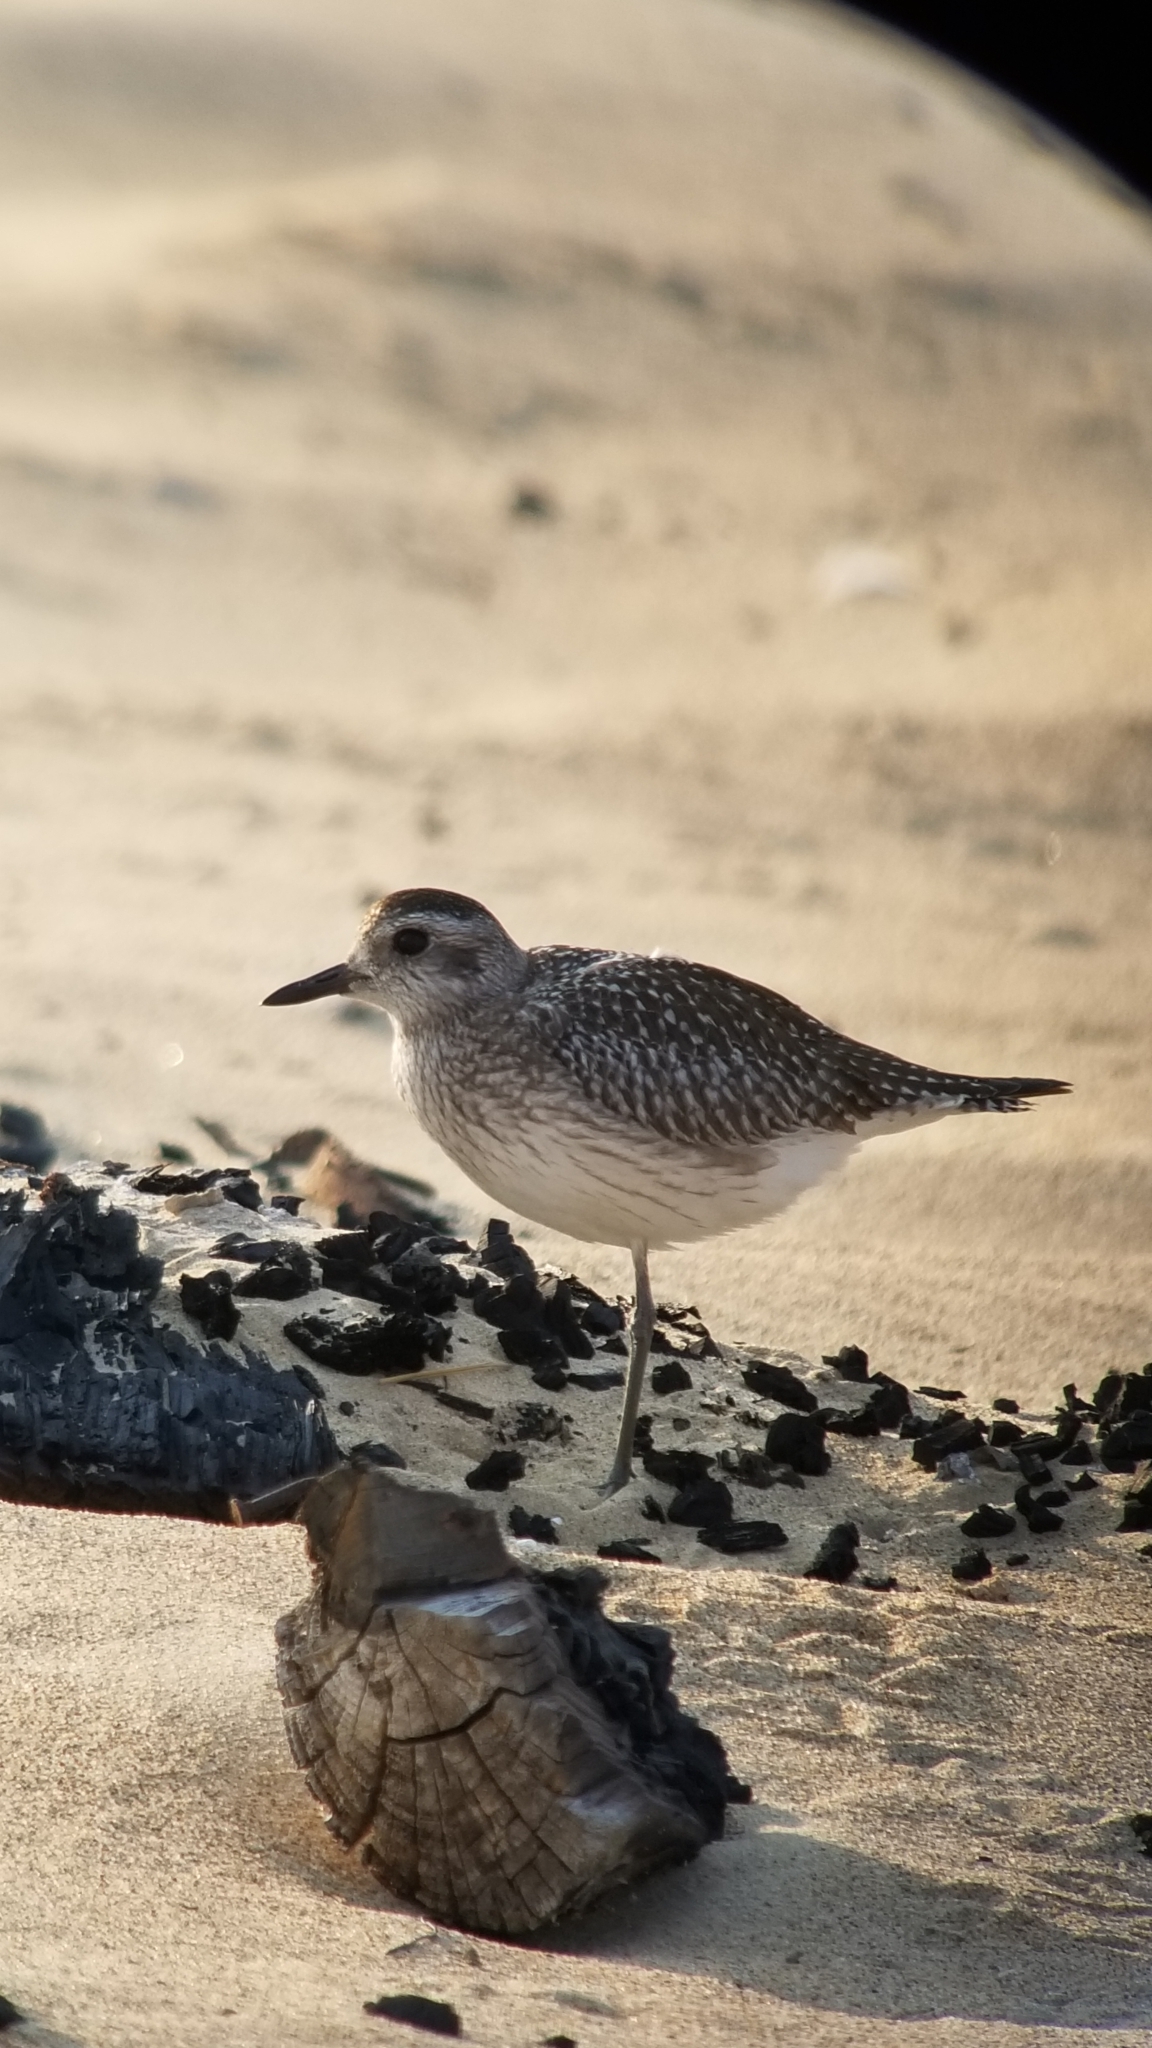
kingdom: Animalia
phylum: Chordata
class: Aves
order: Charadriiformes
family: Charadriidae
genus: Pluvialis
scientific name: Pluvialis squatarola
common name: Grey plover
